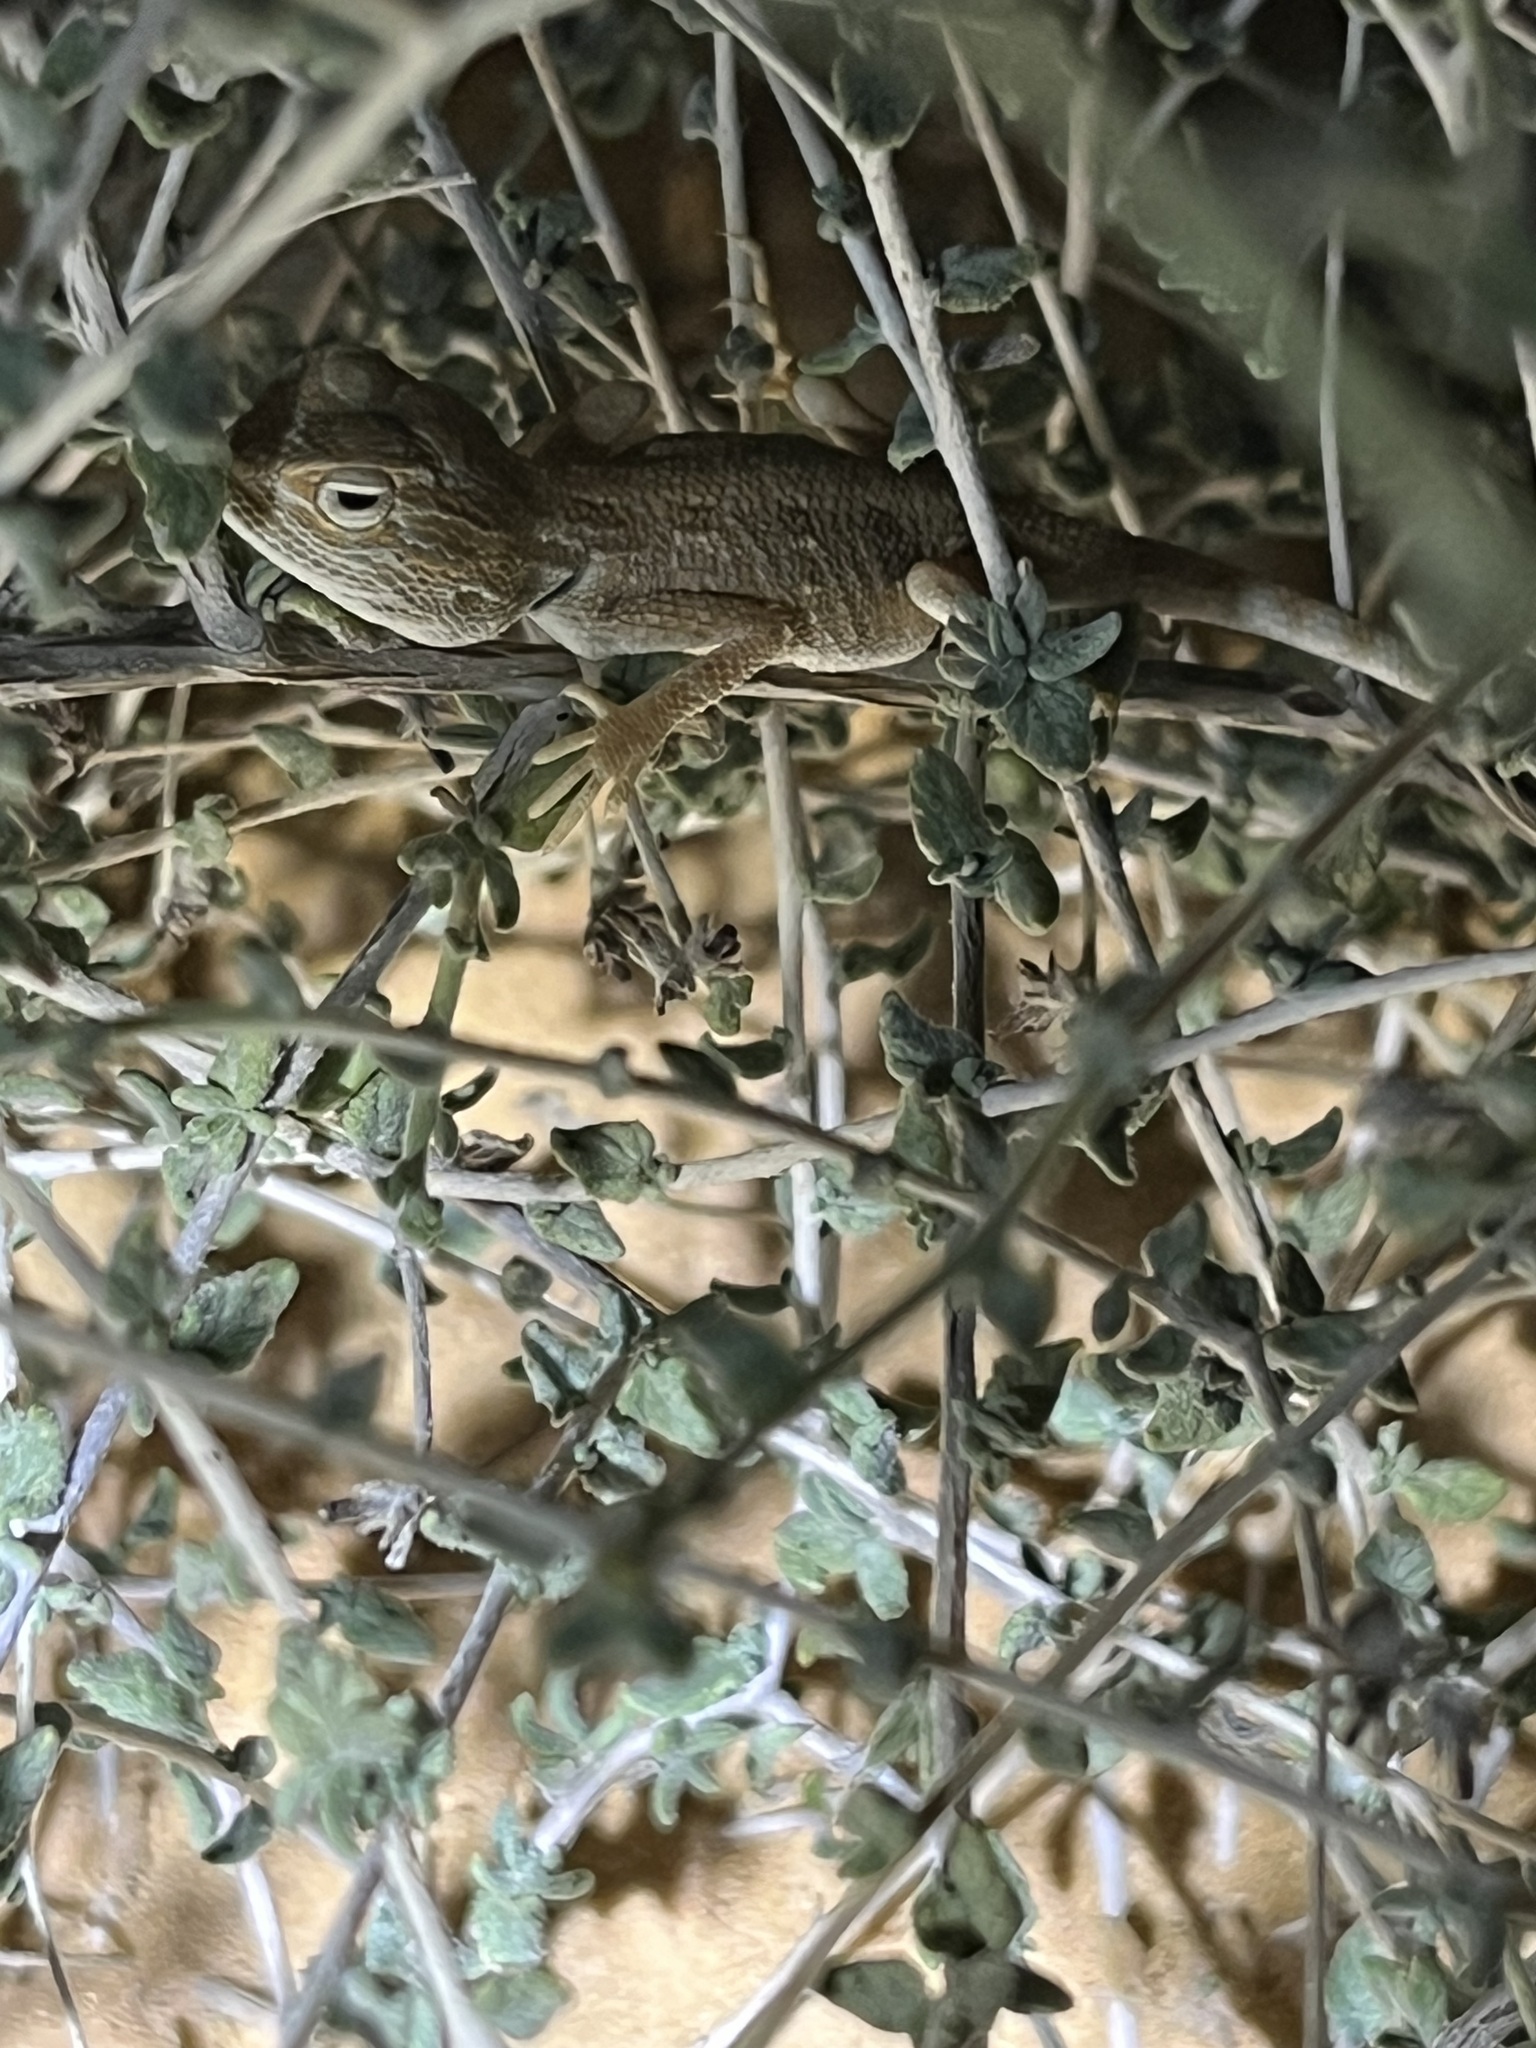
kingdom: Animalia
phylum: Chordata
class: Squamata
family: Agamidae
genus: Trapelus
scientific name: Trapelus savignii
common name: Savigny's agama
